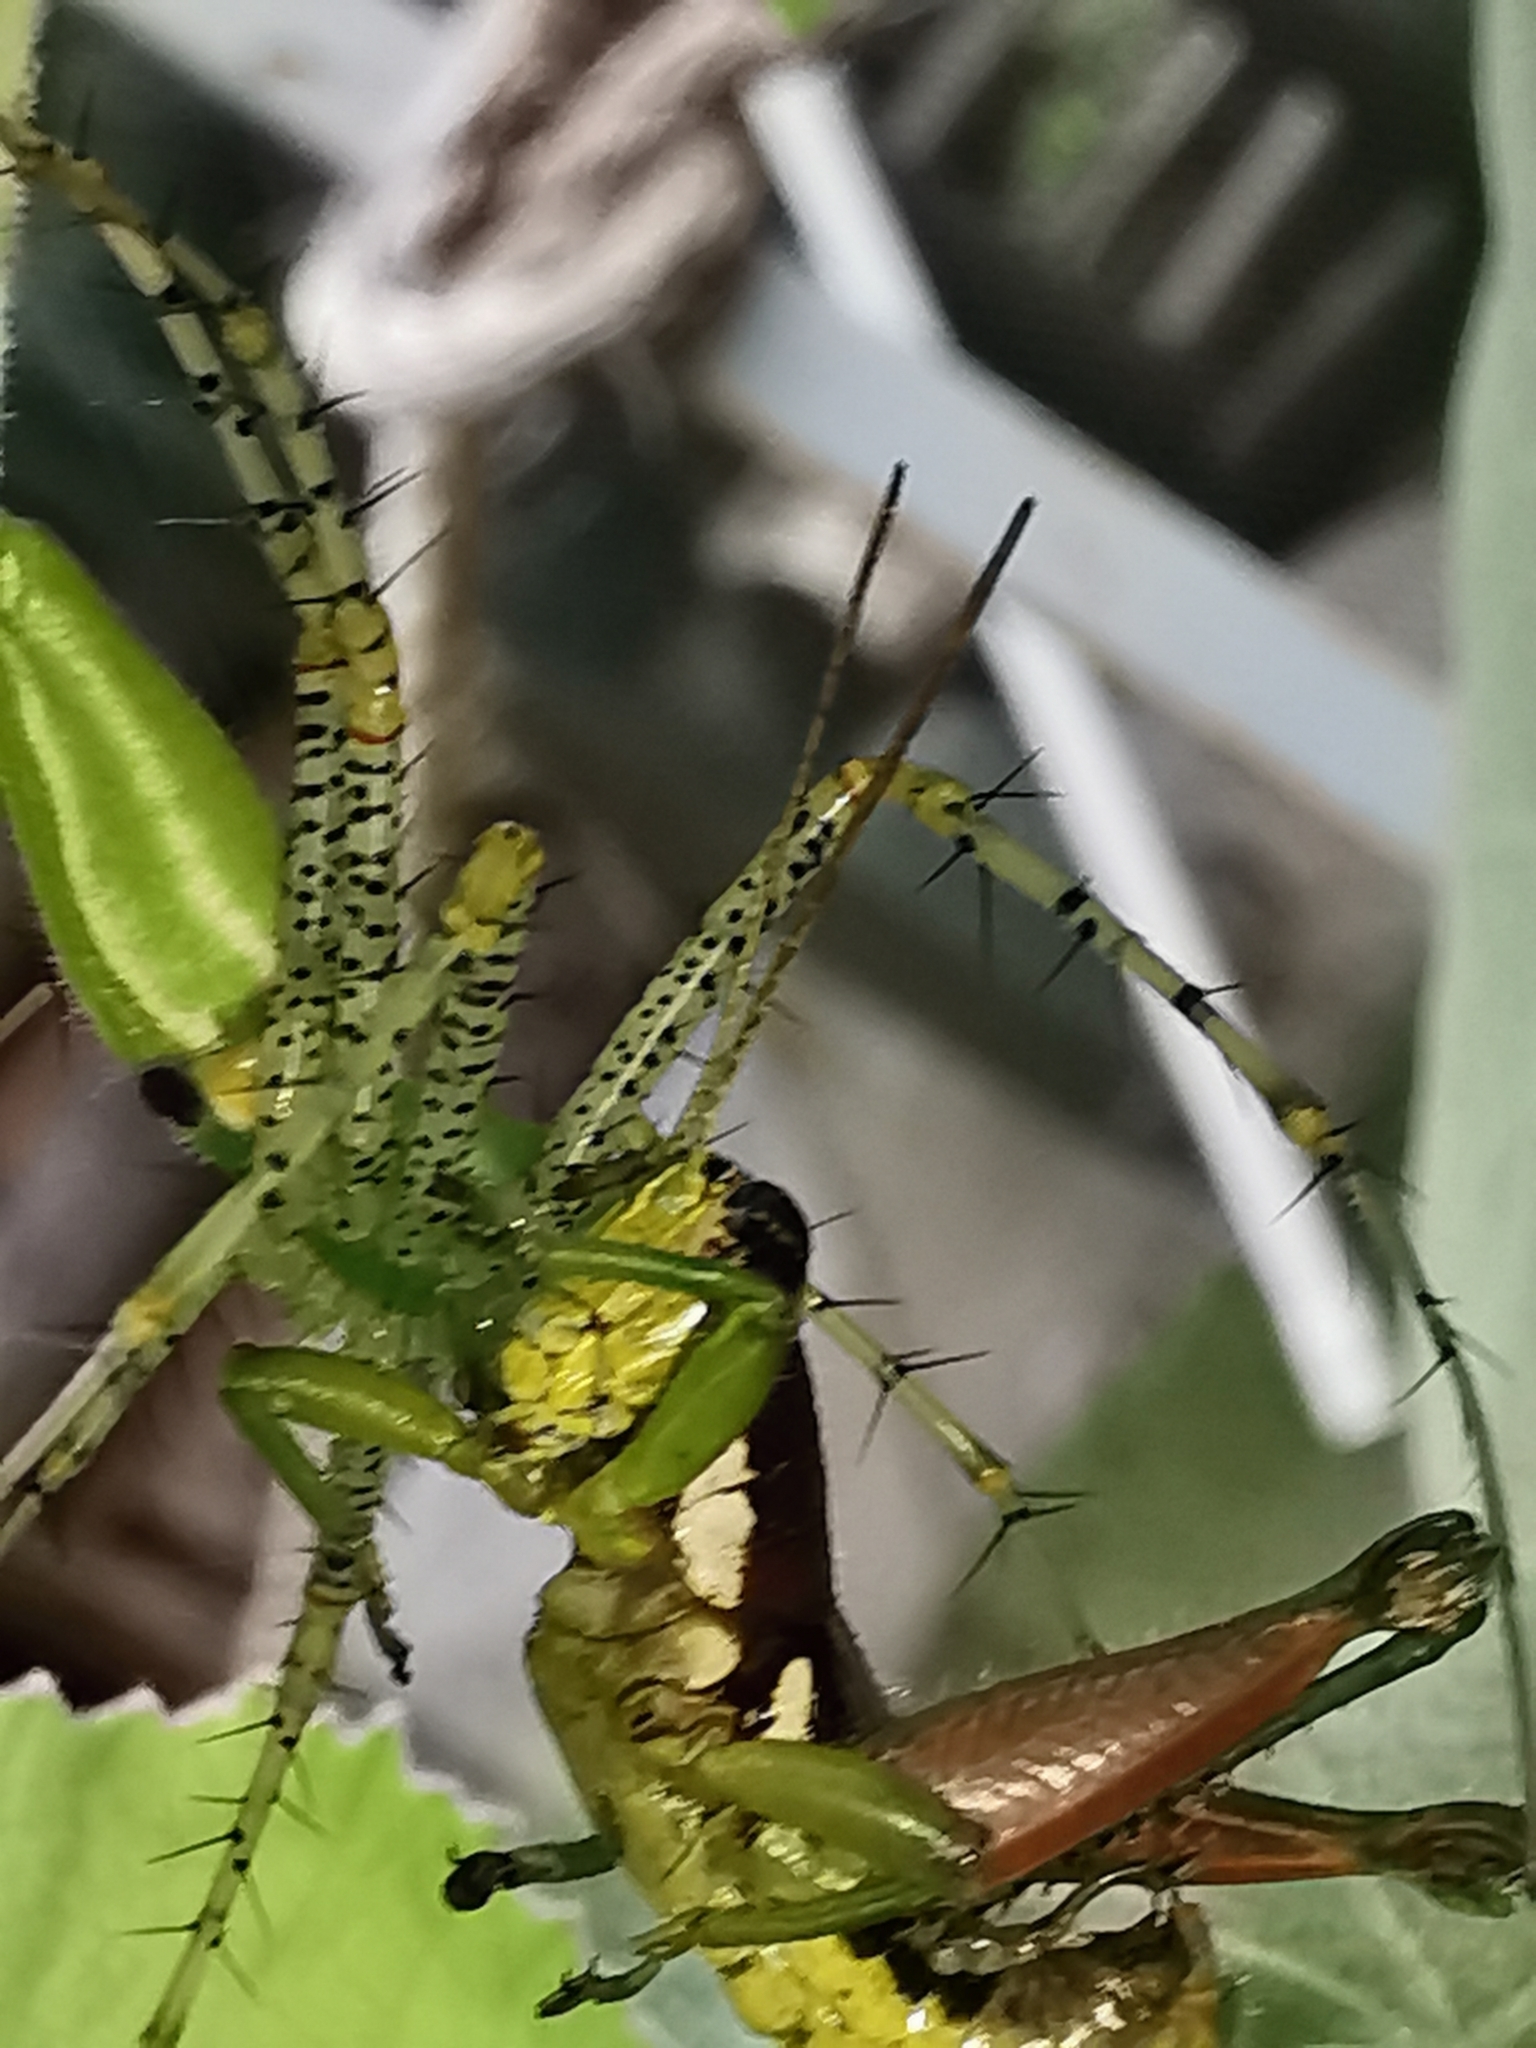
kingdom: Animalia
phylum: Arthropoda
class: Arachnida
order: Araneae
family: Oxyopidae
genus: Peucetia
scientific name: Peucetia viridans
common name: Lynx spiders
